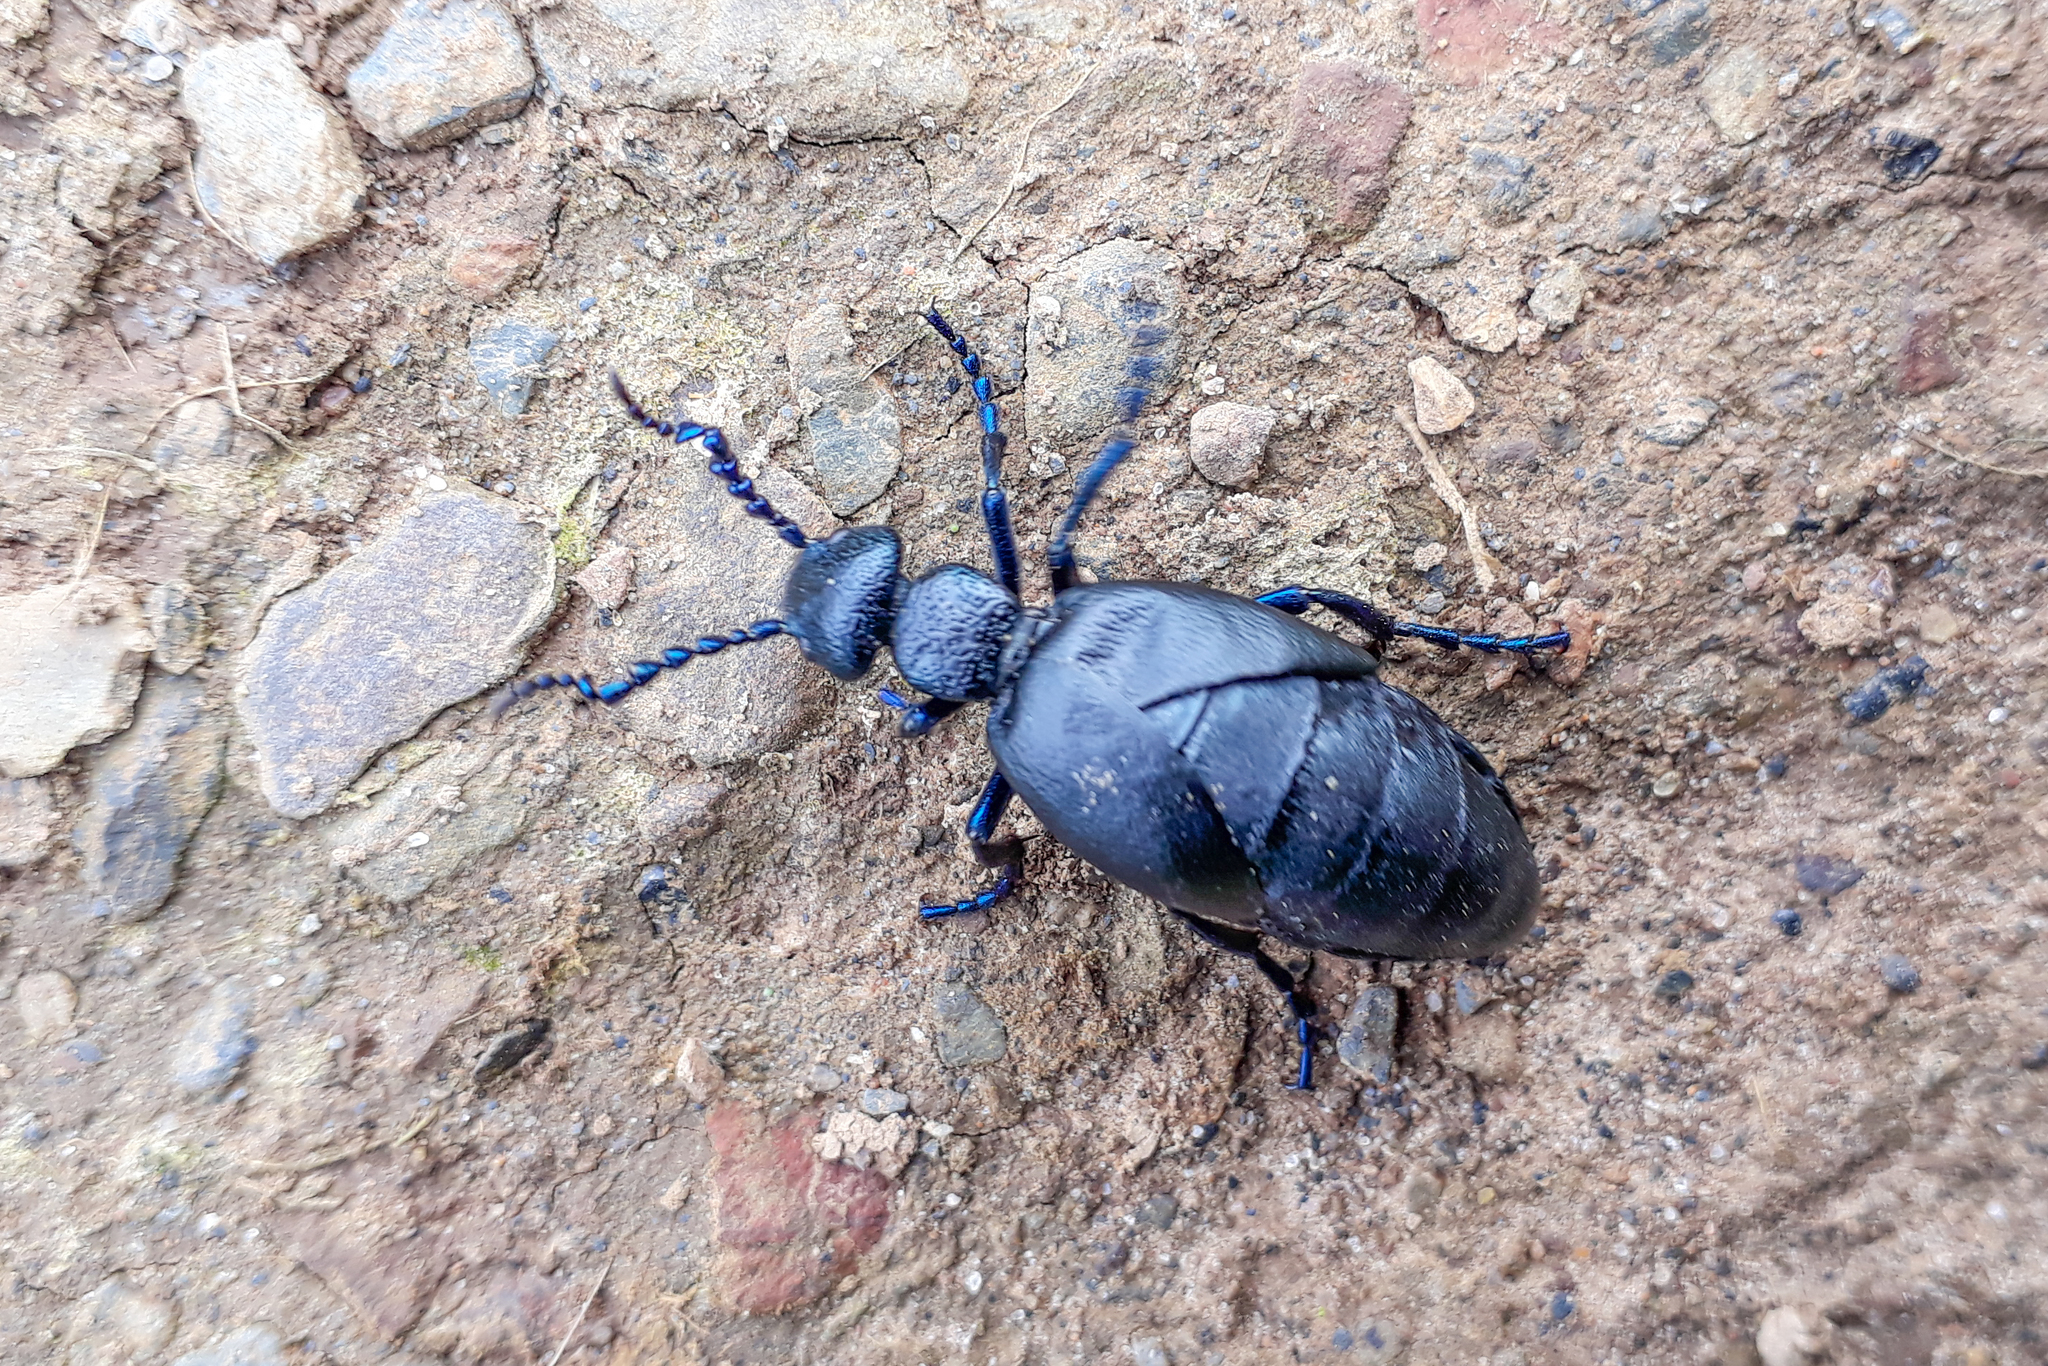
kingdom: Animalia
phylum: Arthropoda
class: Insecta
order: Coleoptera
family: Meloidae
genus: Meloe
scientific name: Meloe proscarabaeus
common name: Black oil-beetle
